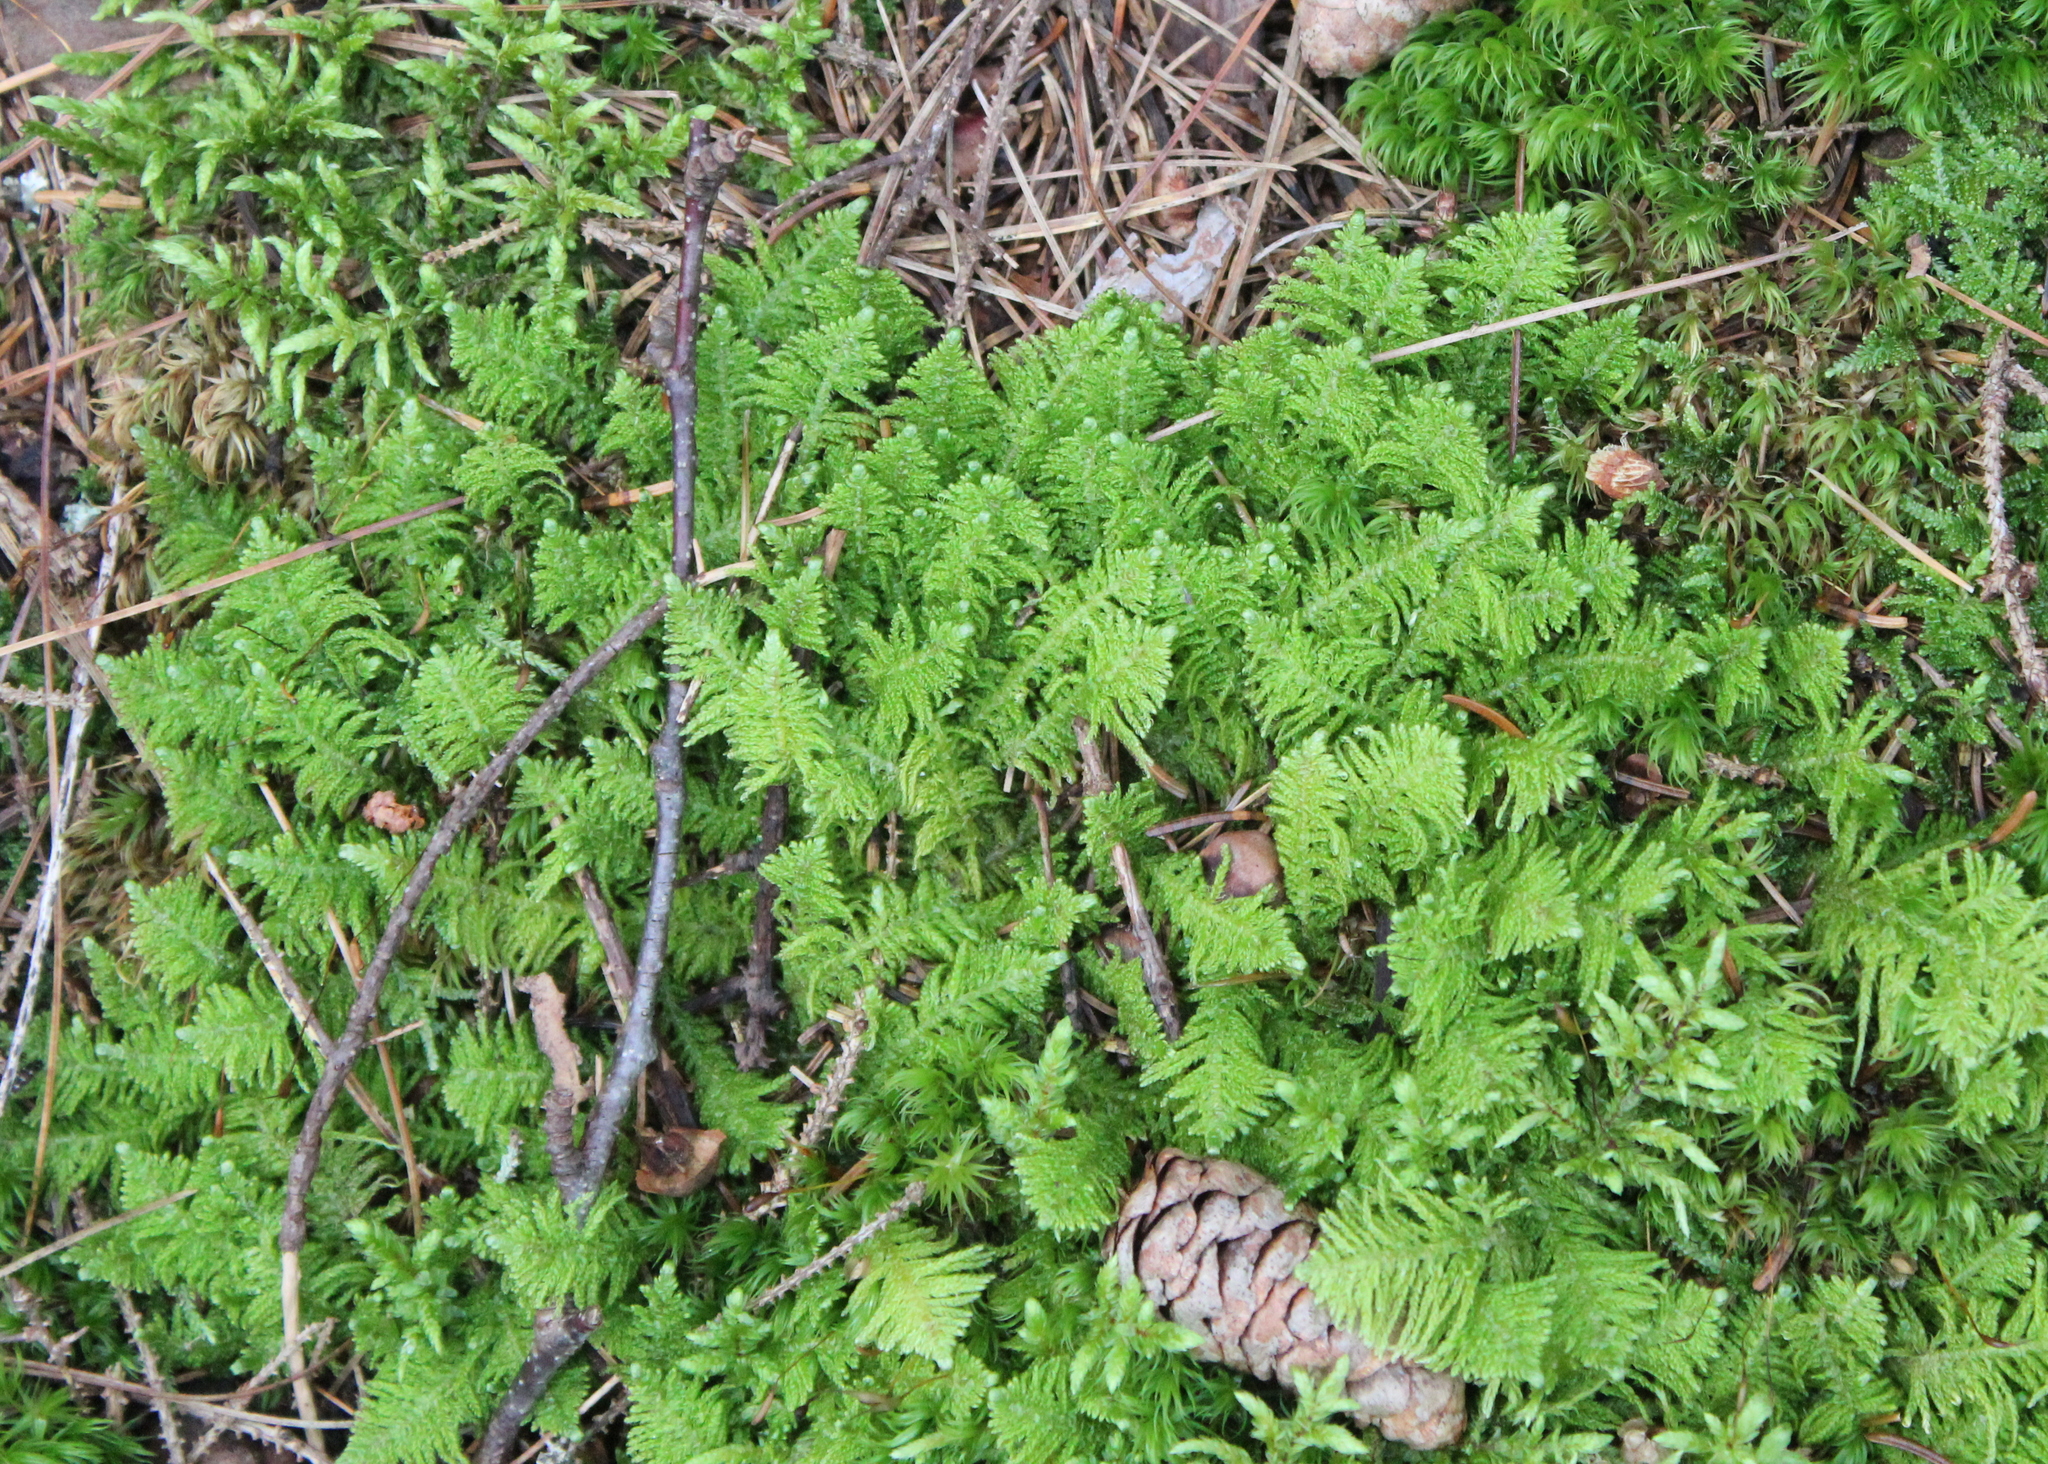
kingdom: Plantae
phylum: Bryophyta
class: Bryopsida
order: Hypnales
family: Pylaisiaceae
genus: Ptilium
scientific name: Ptilium crista-castrensis
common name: Knight's plume moss
